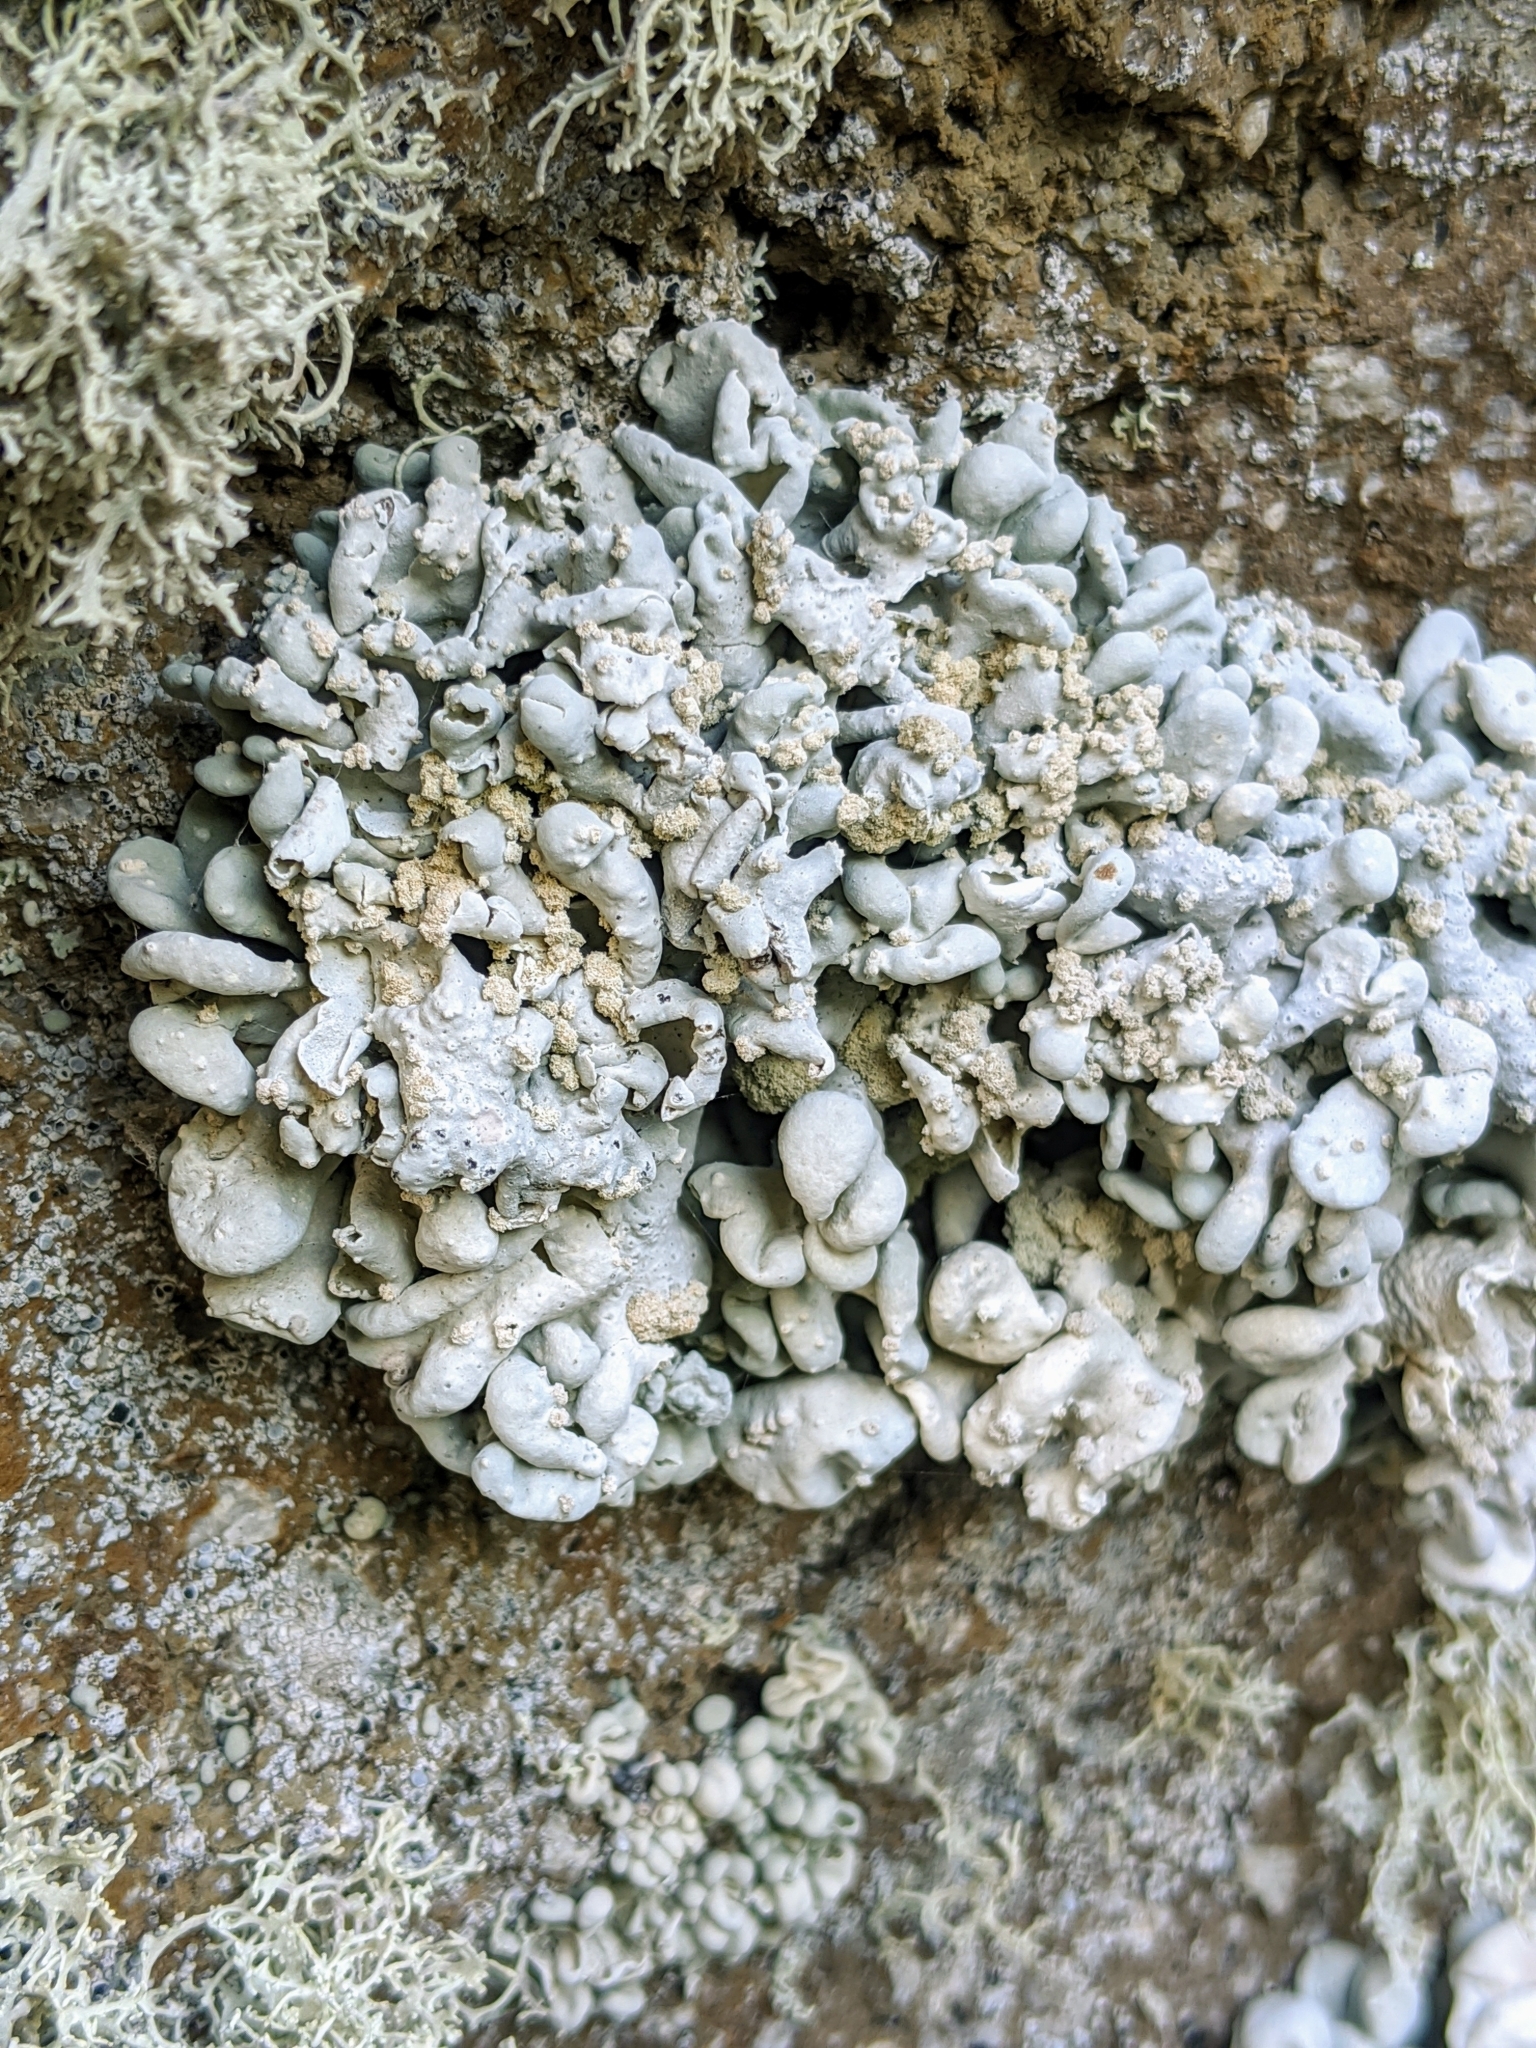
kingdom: Fungi
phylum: Ascomycota
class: Arthoniomycetes
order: Arthoniales
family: Opegraphaceae
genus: Schizopelte
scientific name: Schizopelte parishii
